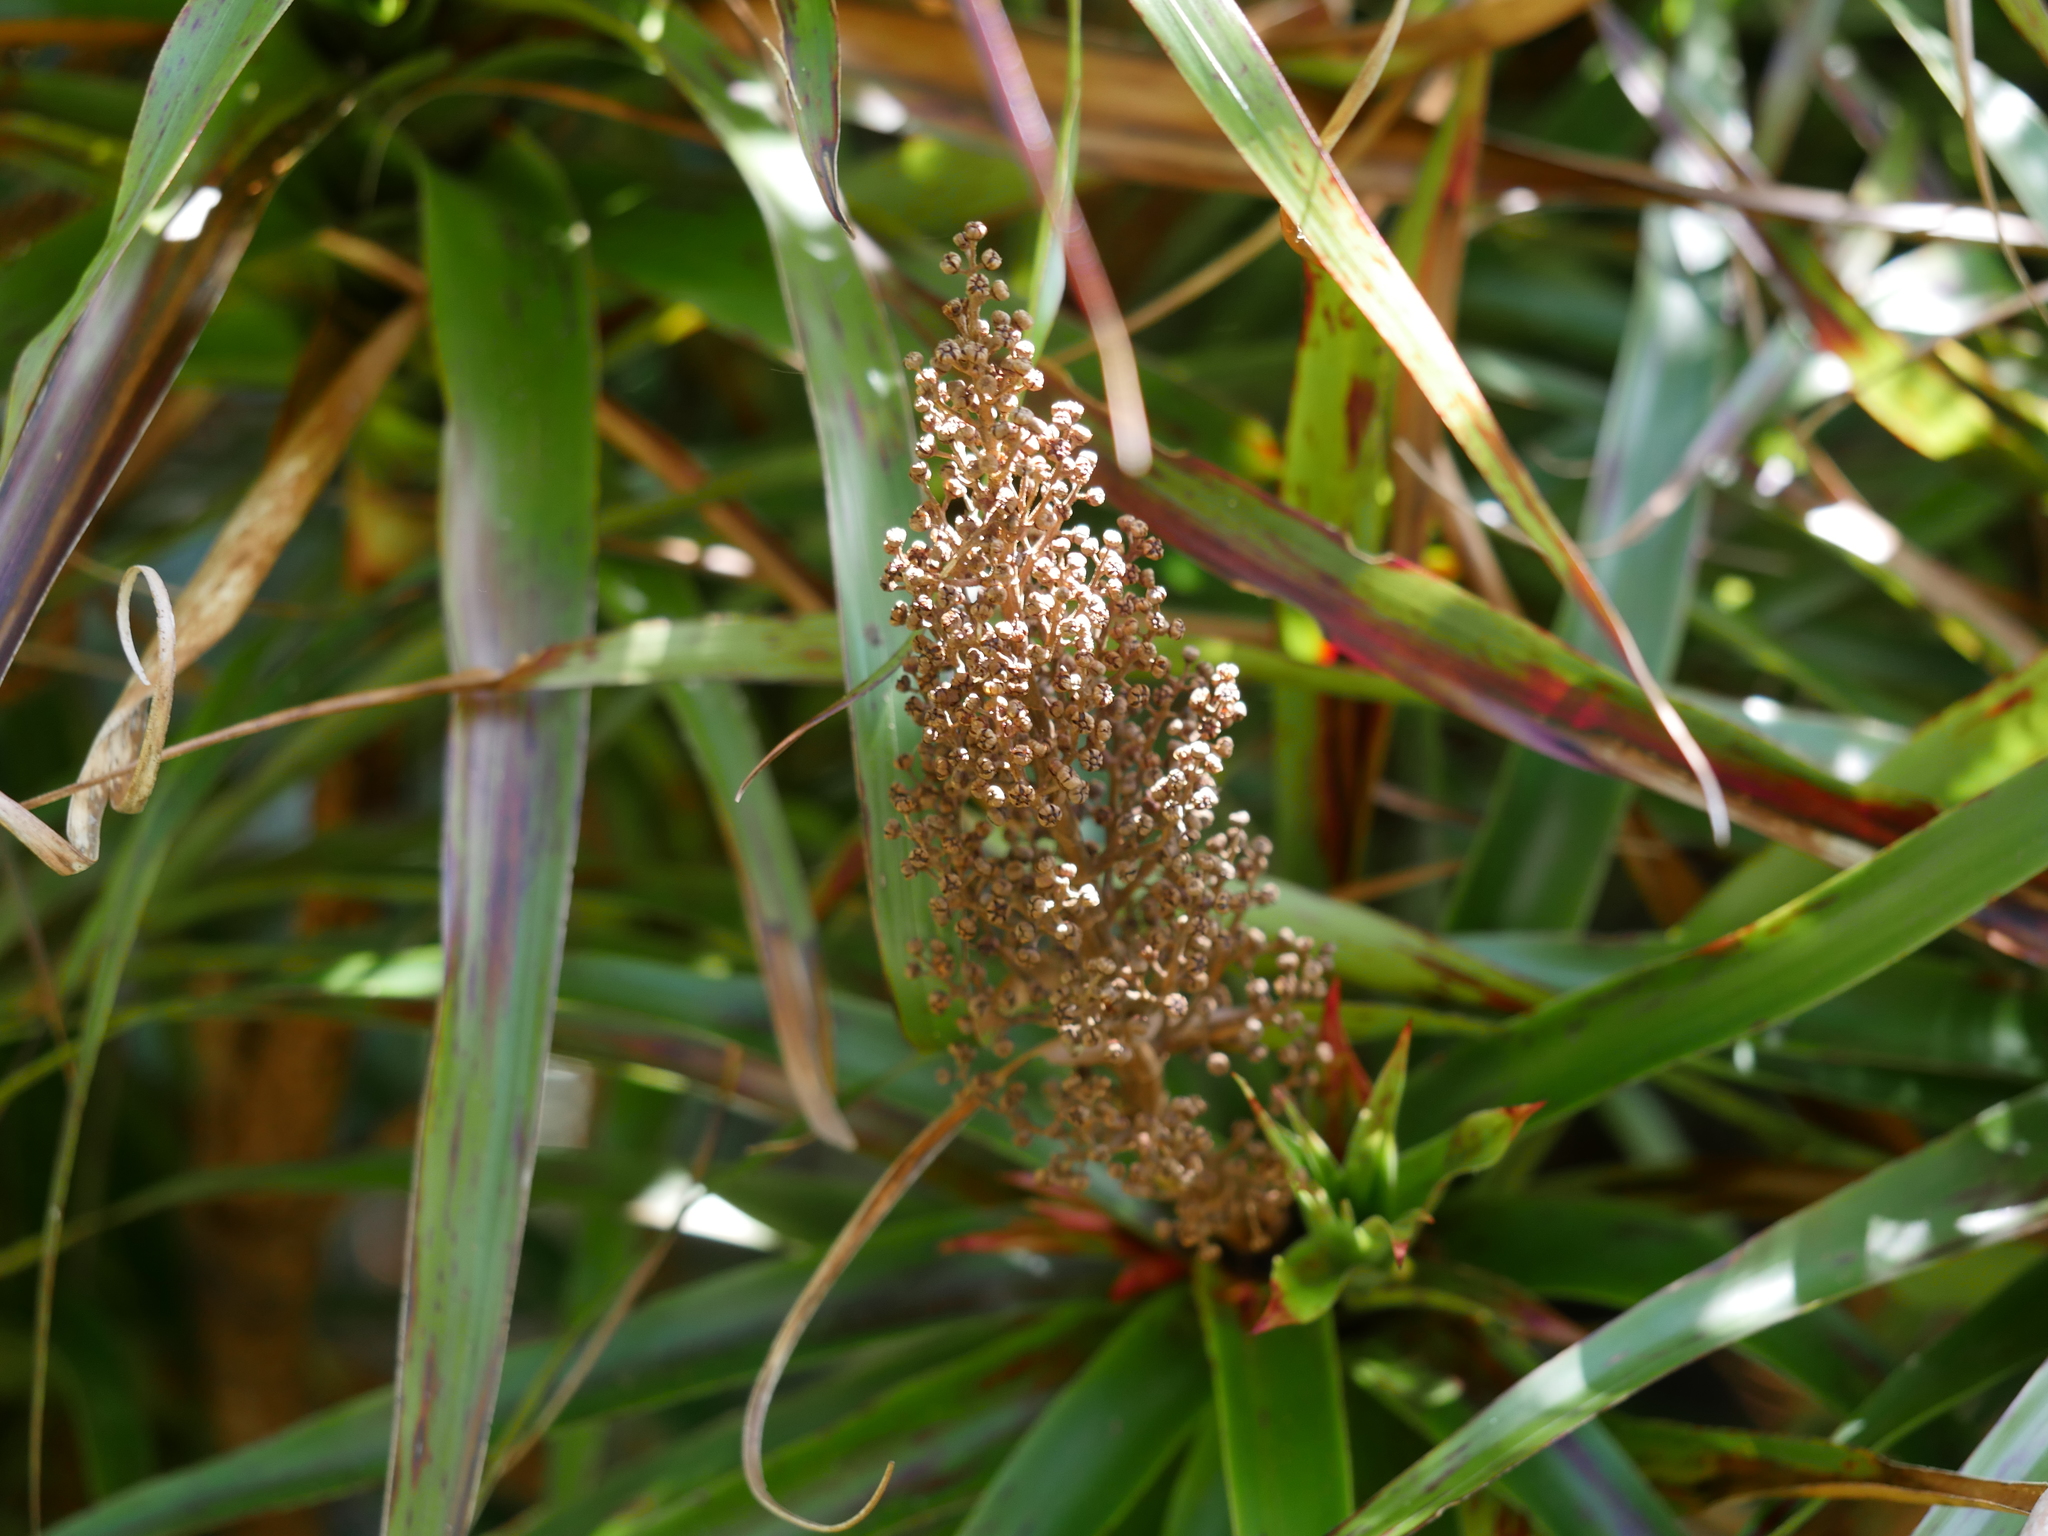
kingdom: Plantae
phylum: Tracheophyta
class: Magnoliopsida
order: Ericales
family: Ericaceae
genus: Dracophyllum
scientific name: Dracophyllum latifolium
